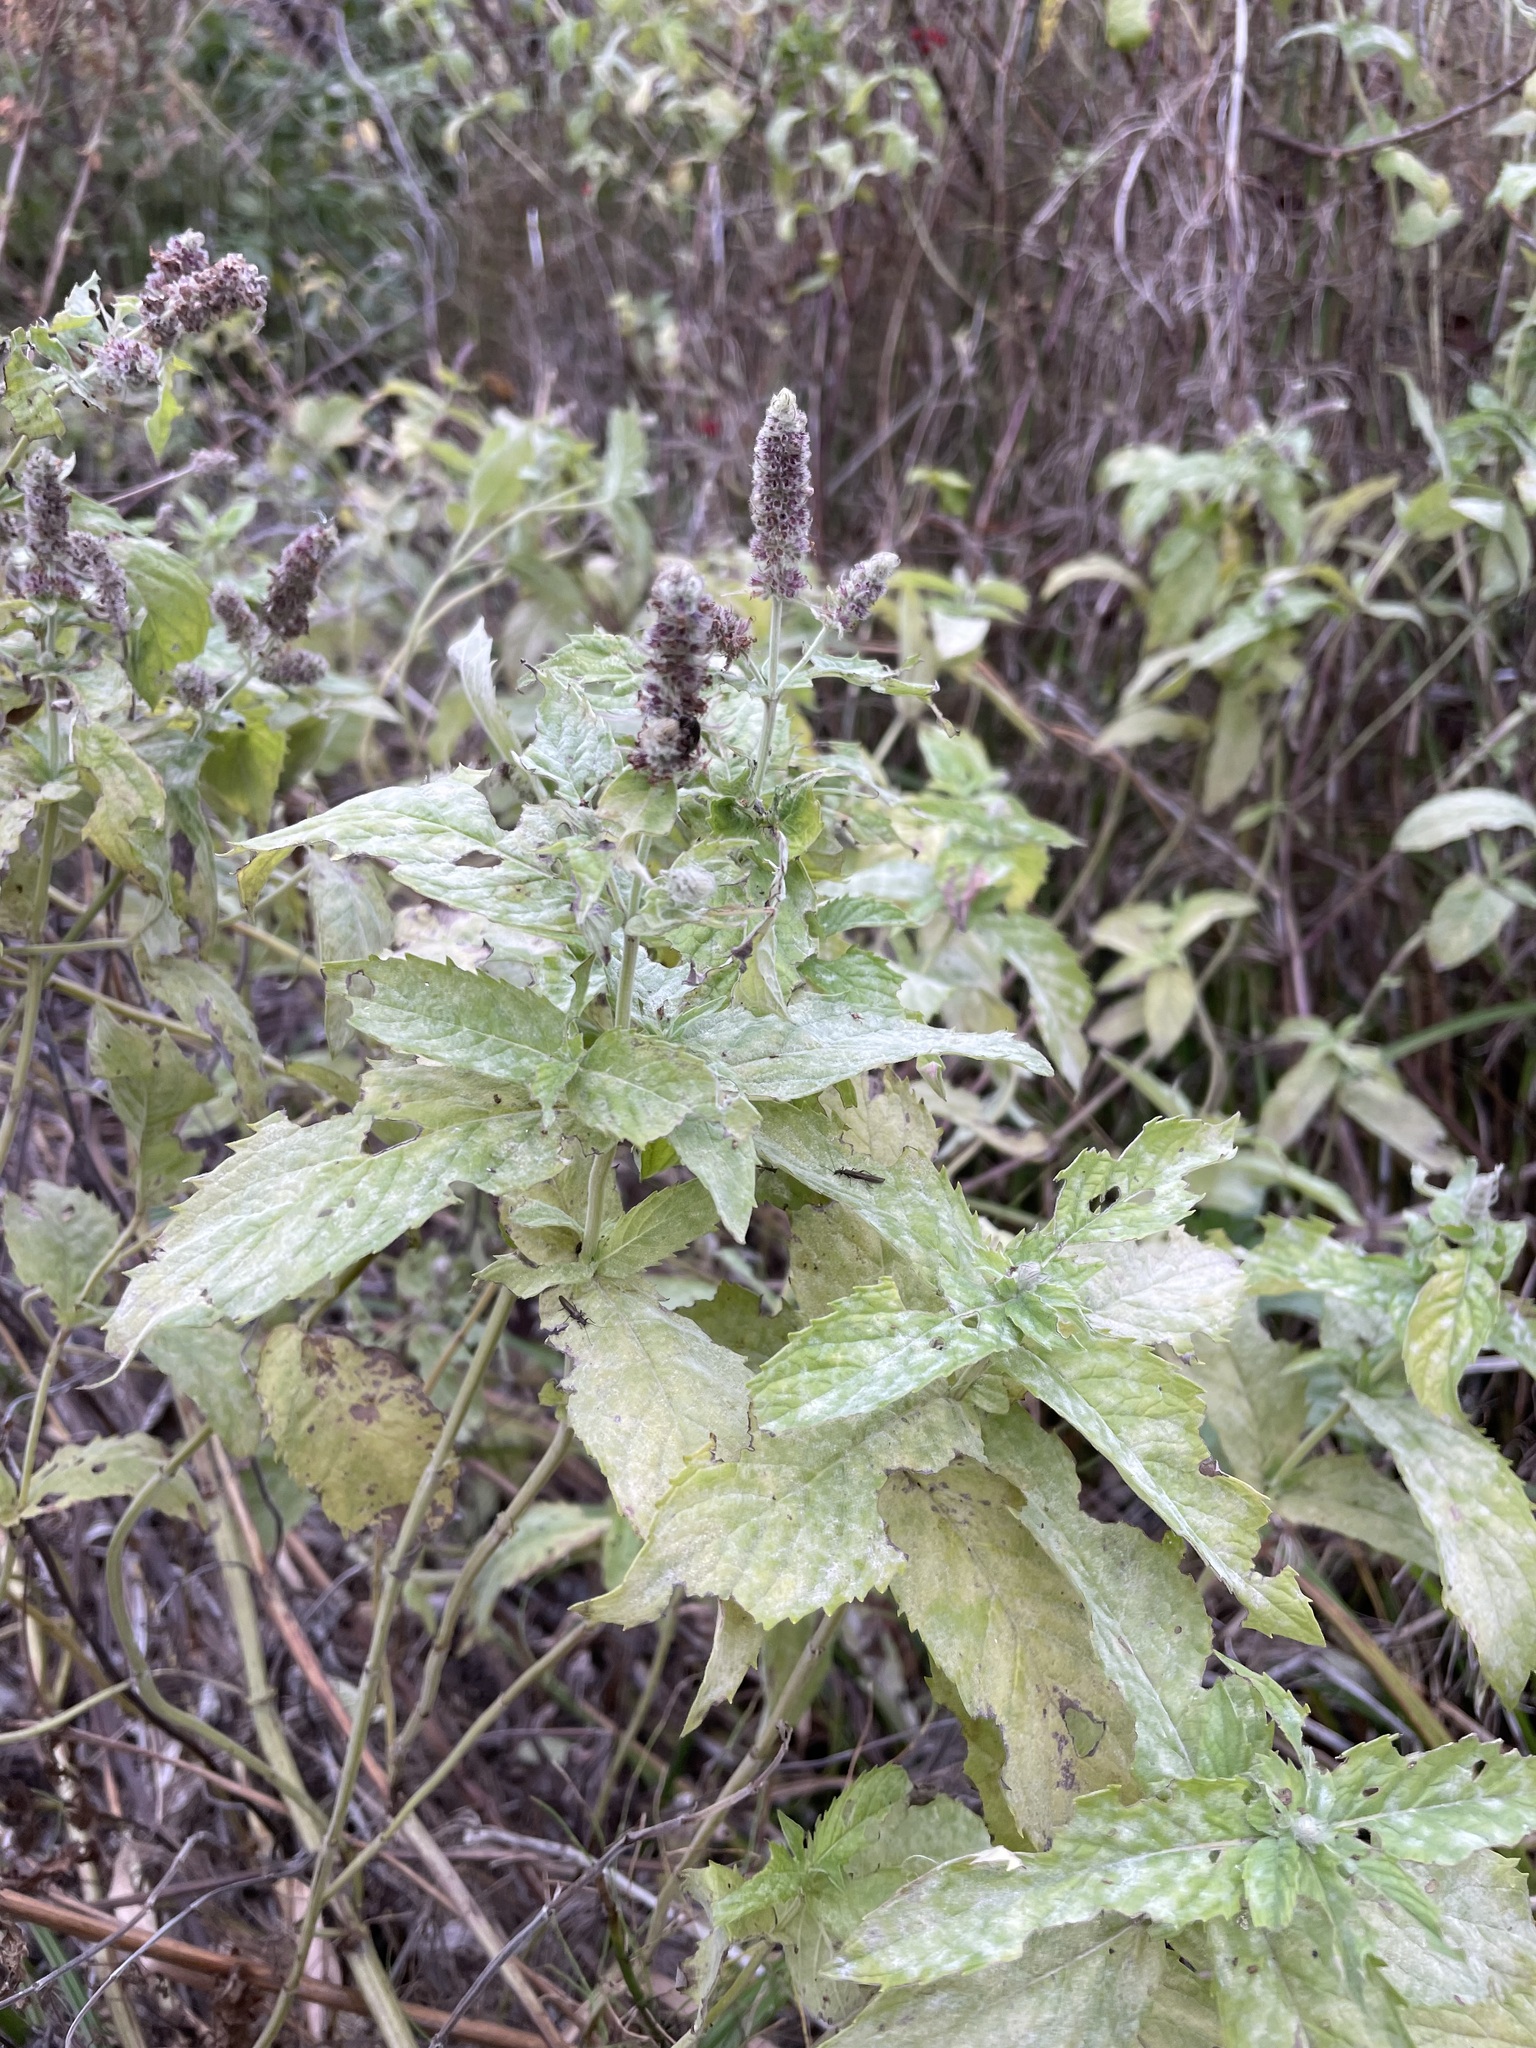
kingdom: Plantae
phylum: Tracheophyta
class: Magnoliopsida
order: Lamiales
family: Lamiaceae
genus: Mentha
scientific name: Mentha longifolia
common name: Horse mint
